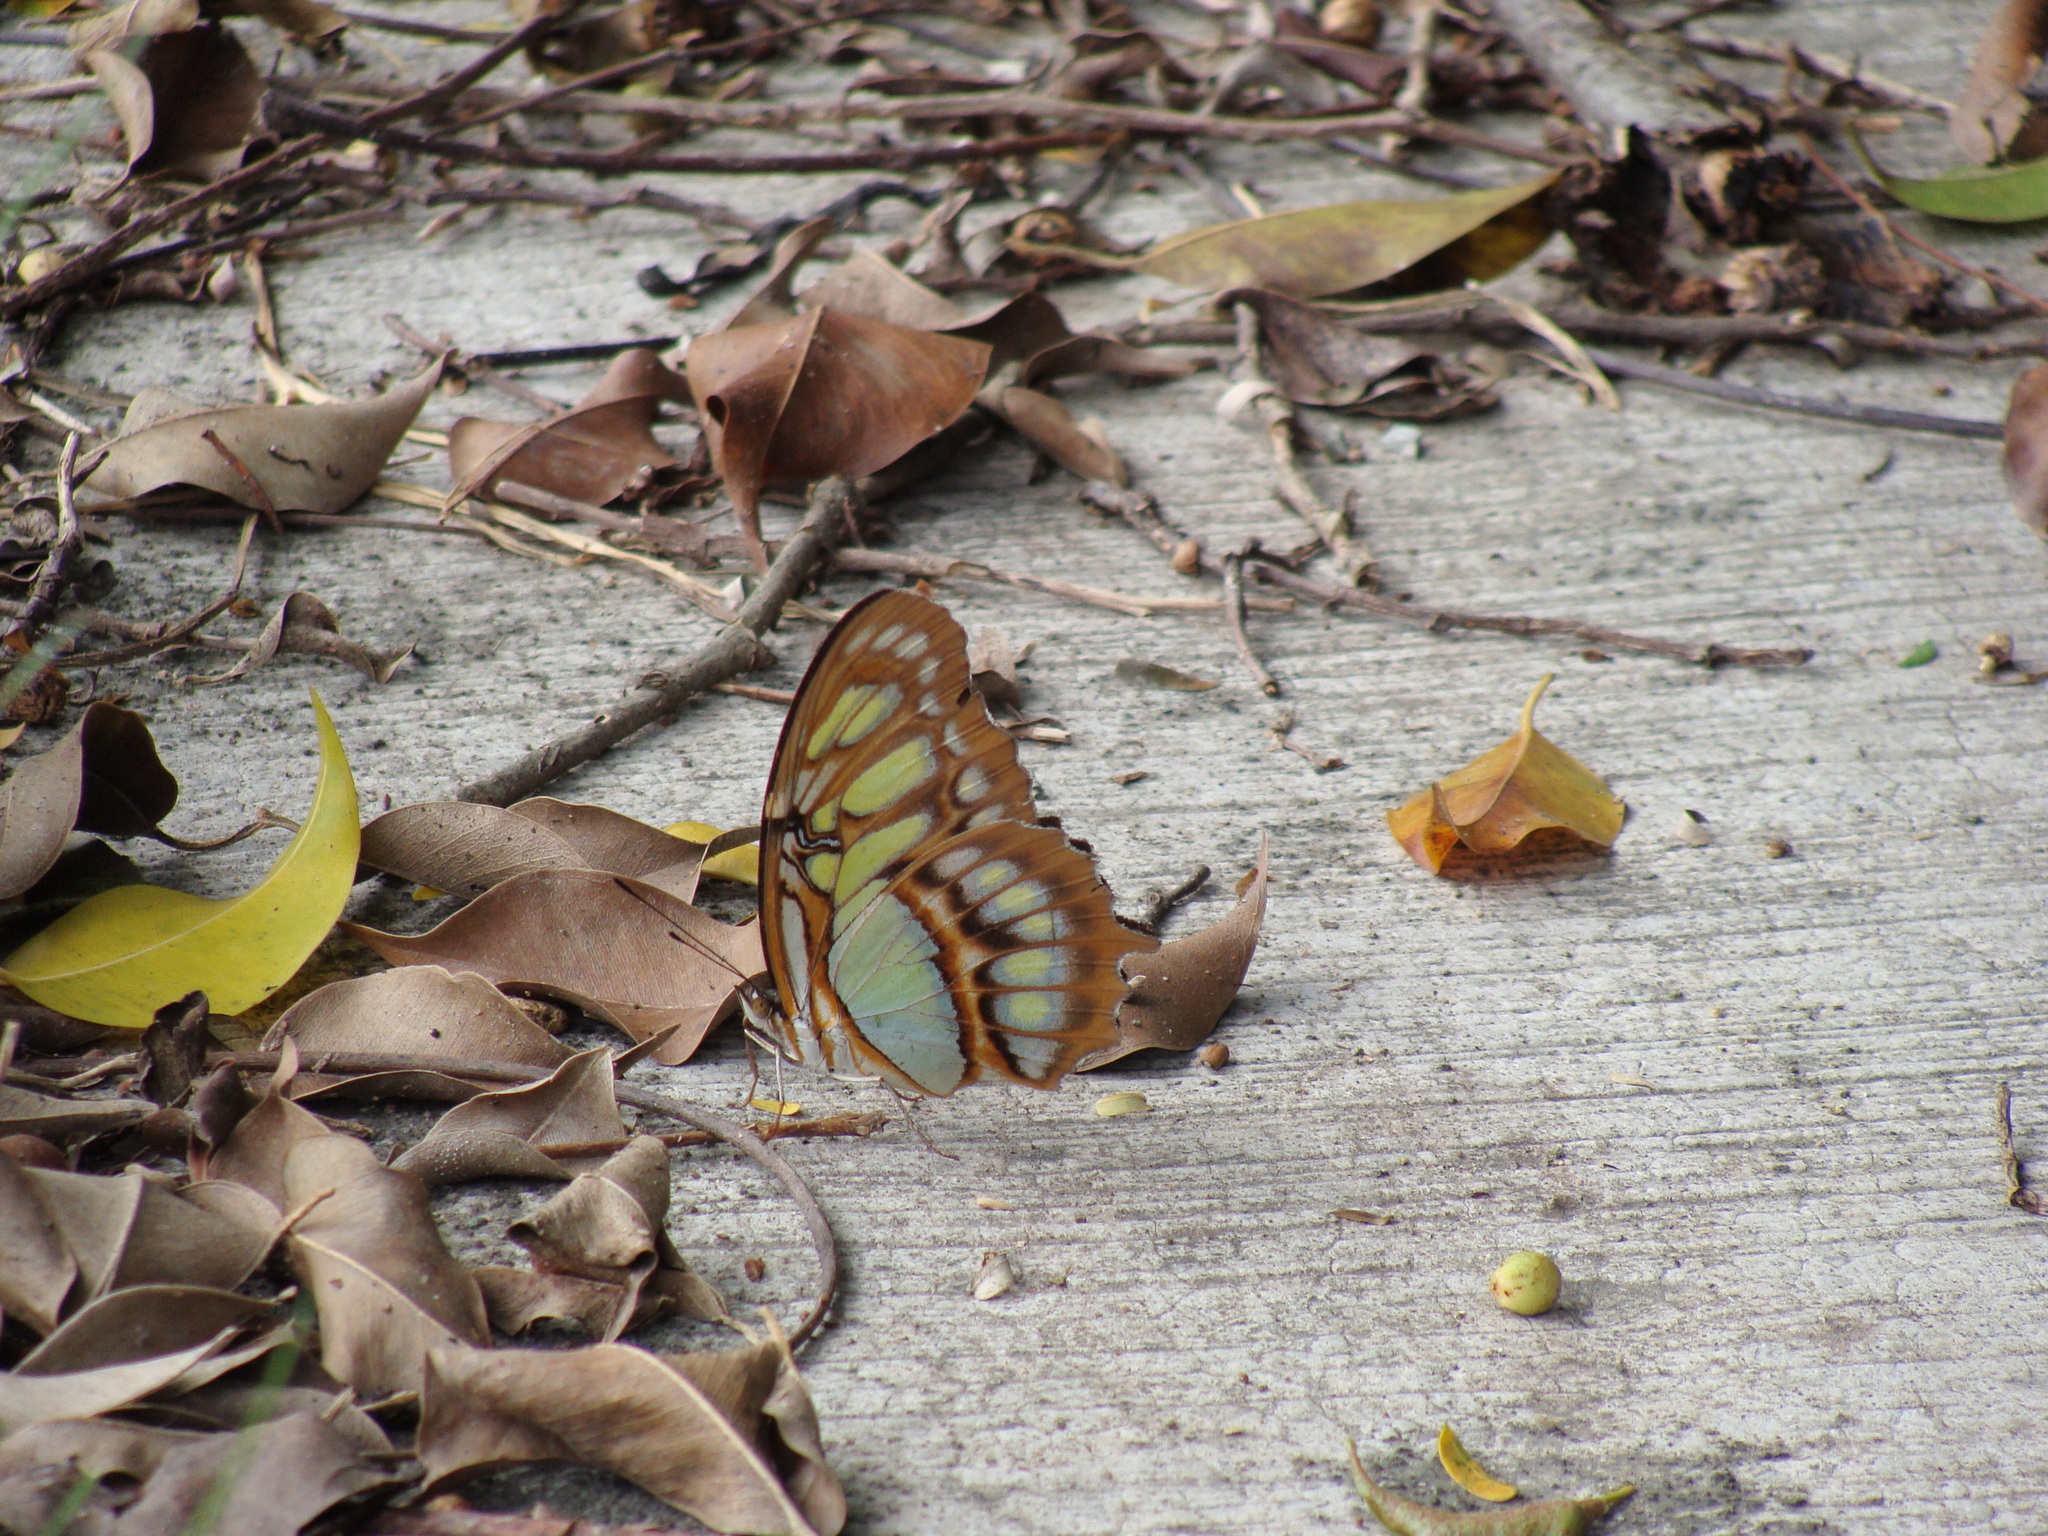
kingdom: Animalia
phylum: Arthropoda
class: Insecta
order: Lepidoptera
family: Nymphalidae
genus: Siproeta
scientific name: Siproeta stelenes
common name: Malachite
